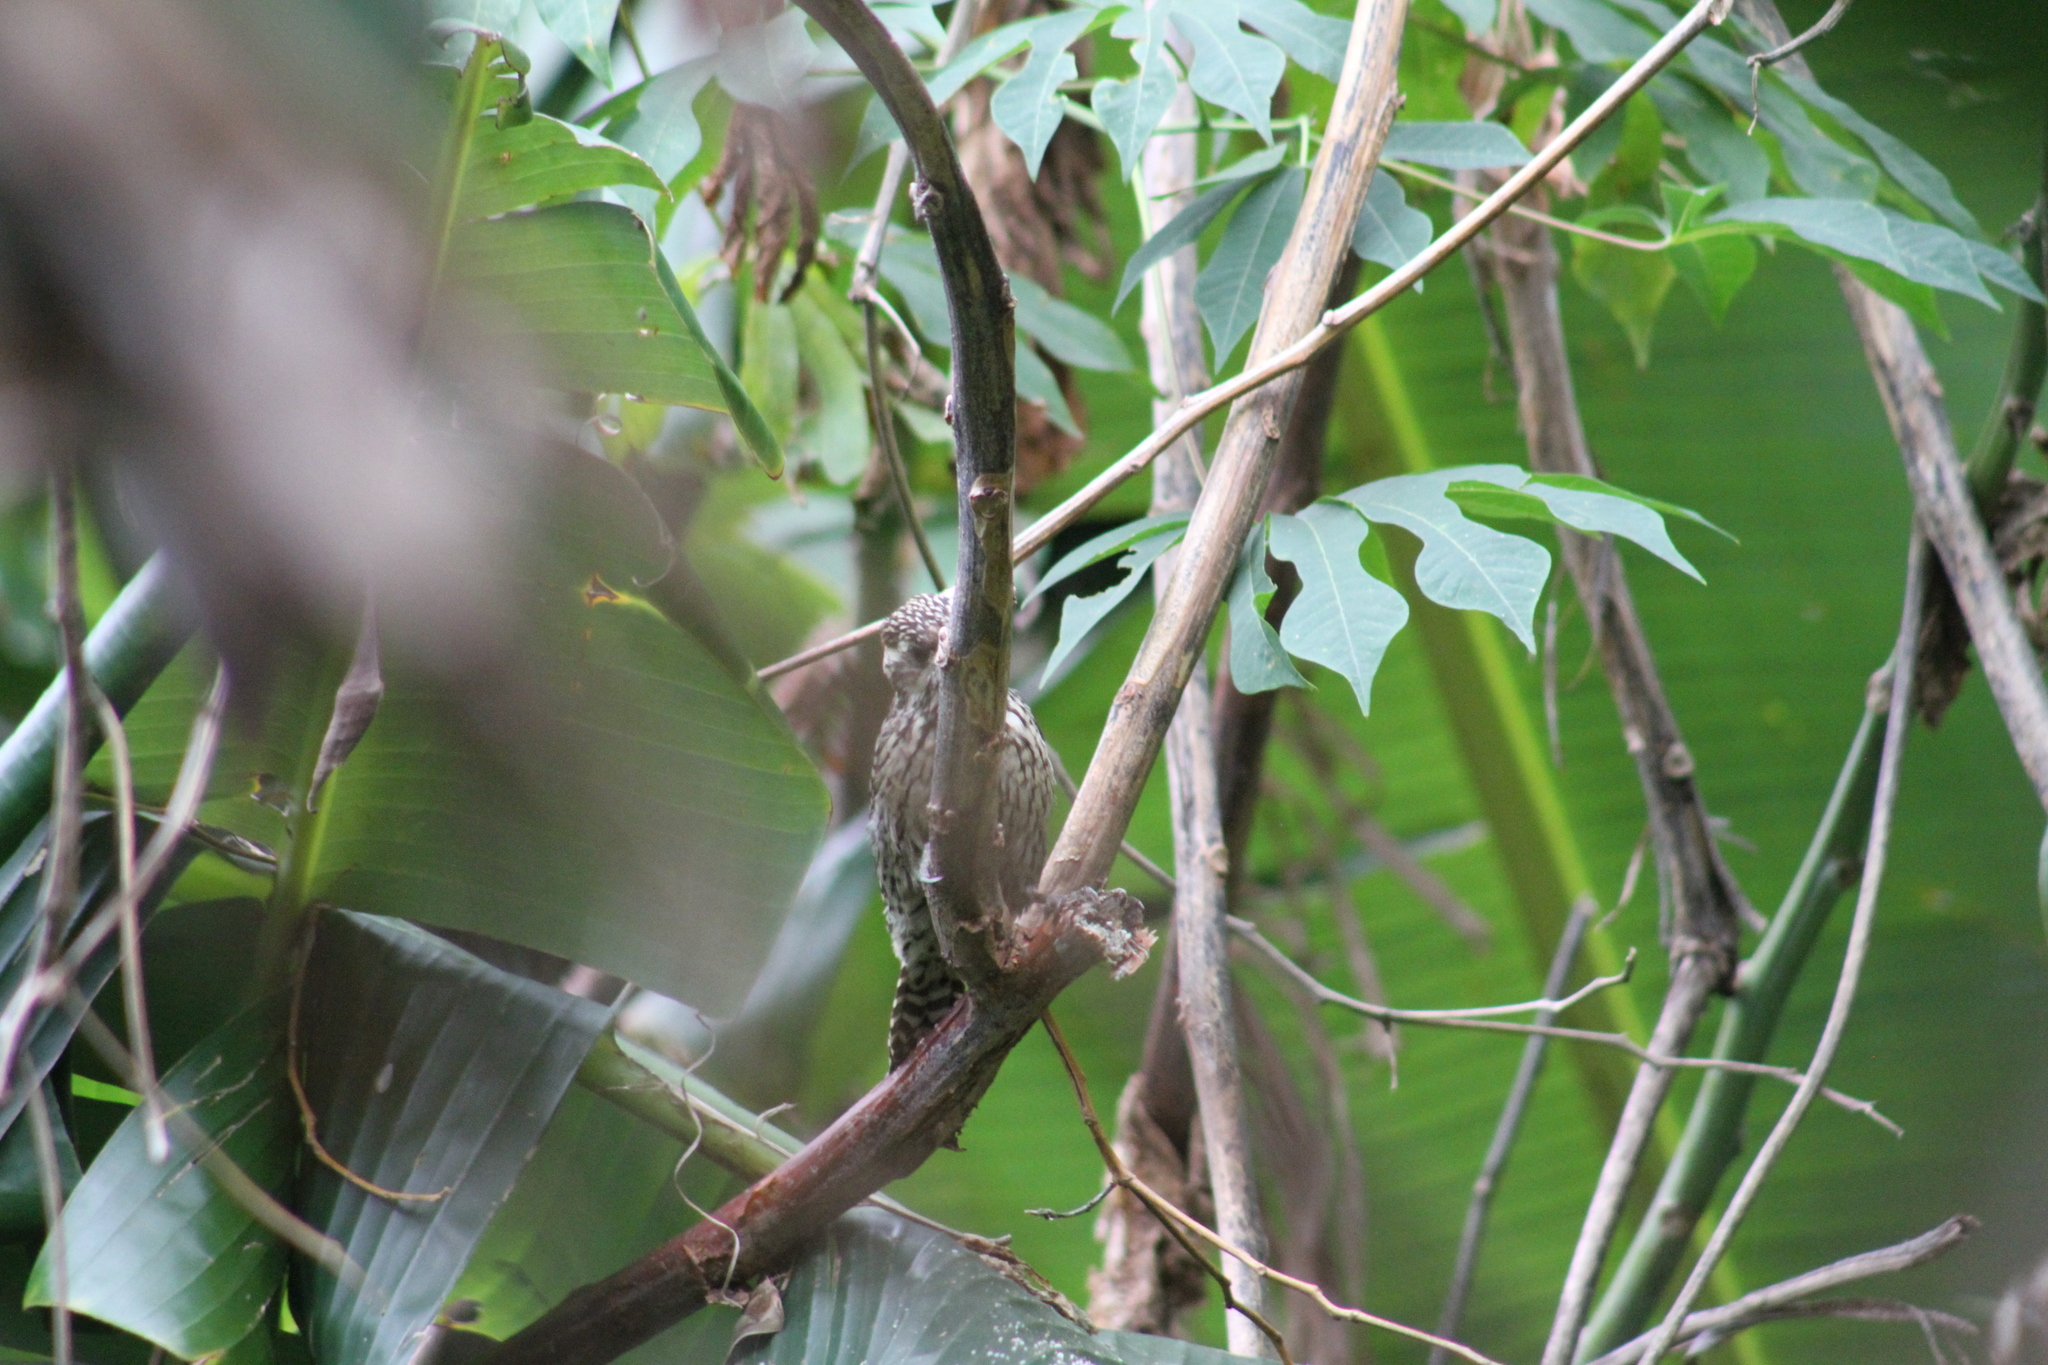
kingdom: Animalia
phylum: Chordata
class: Aves
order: Piciformes
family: Picidae
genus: Veniliornis
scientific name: Veniliornis mixtus
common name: Checkered woodpecker
